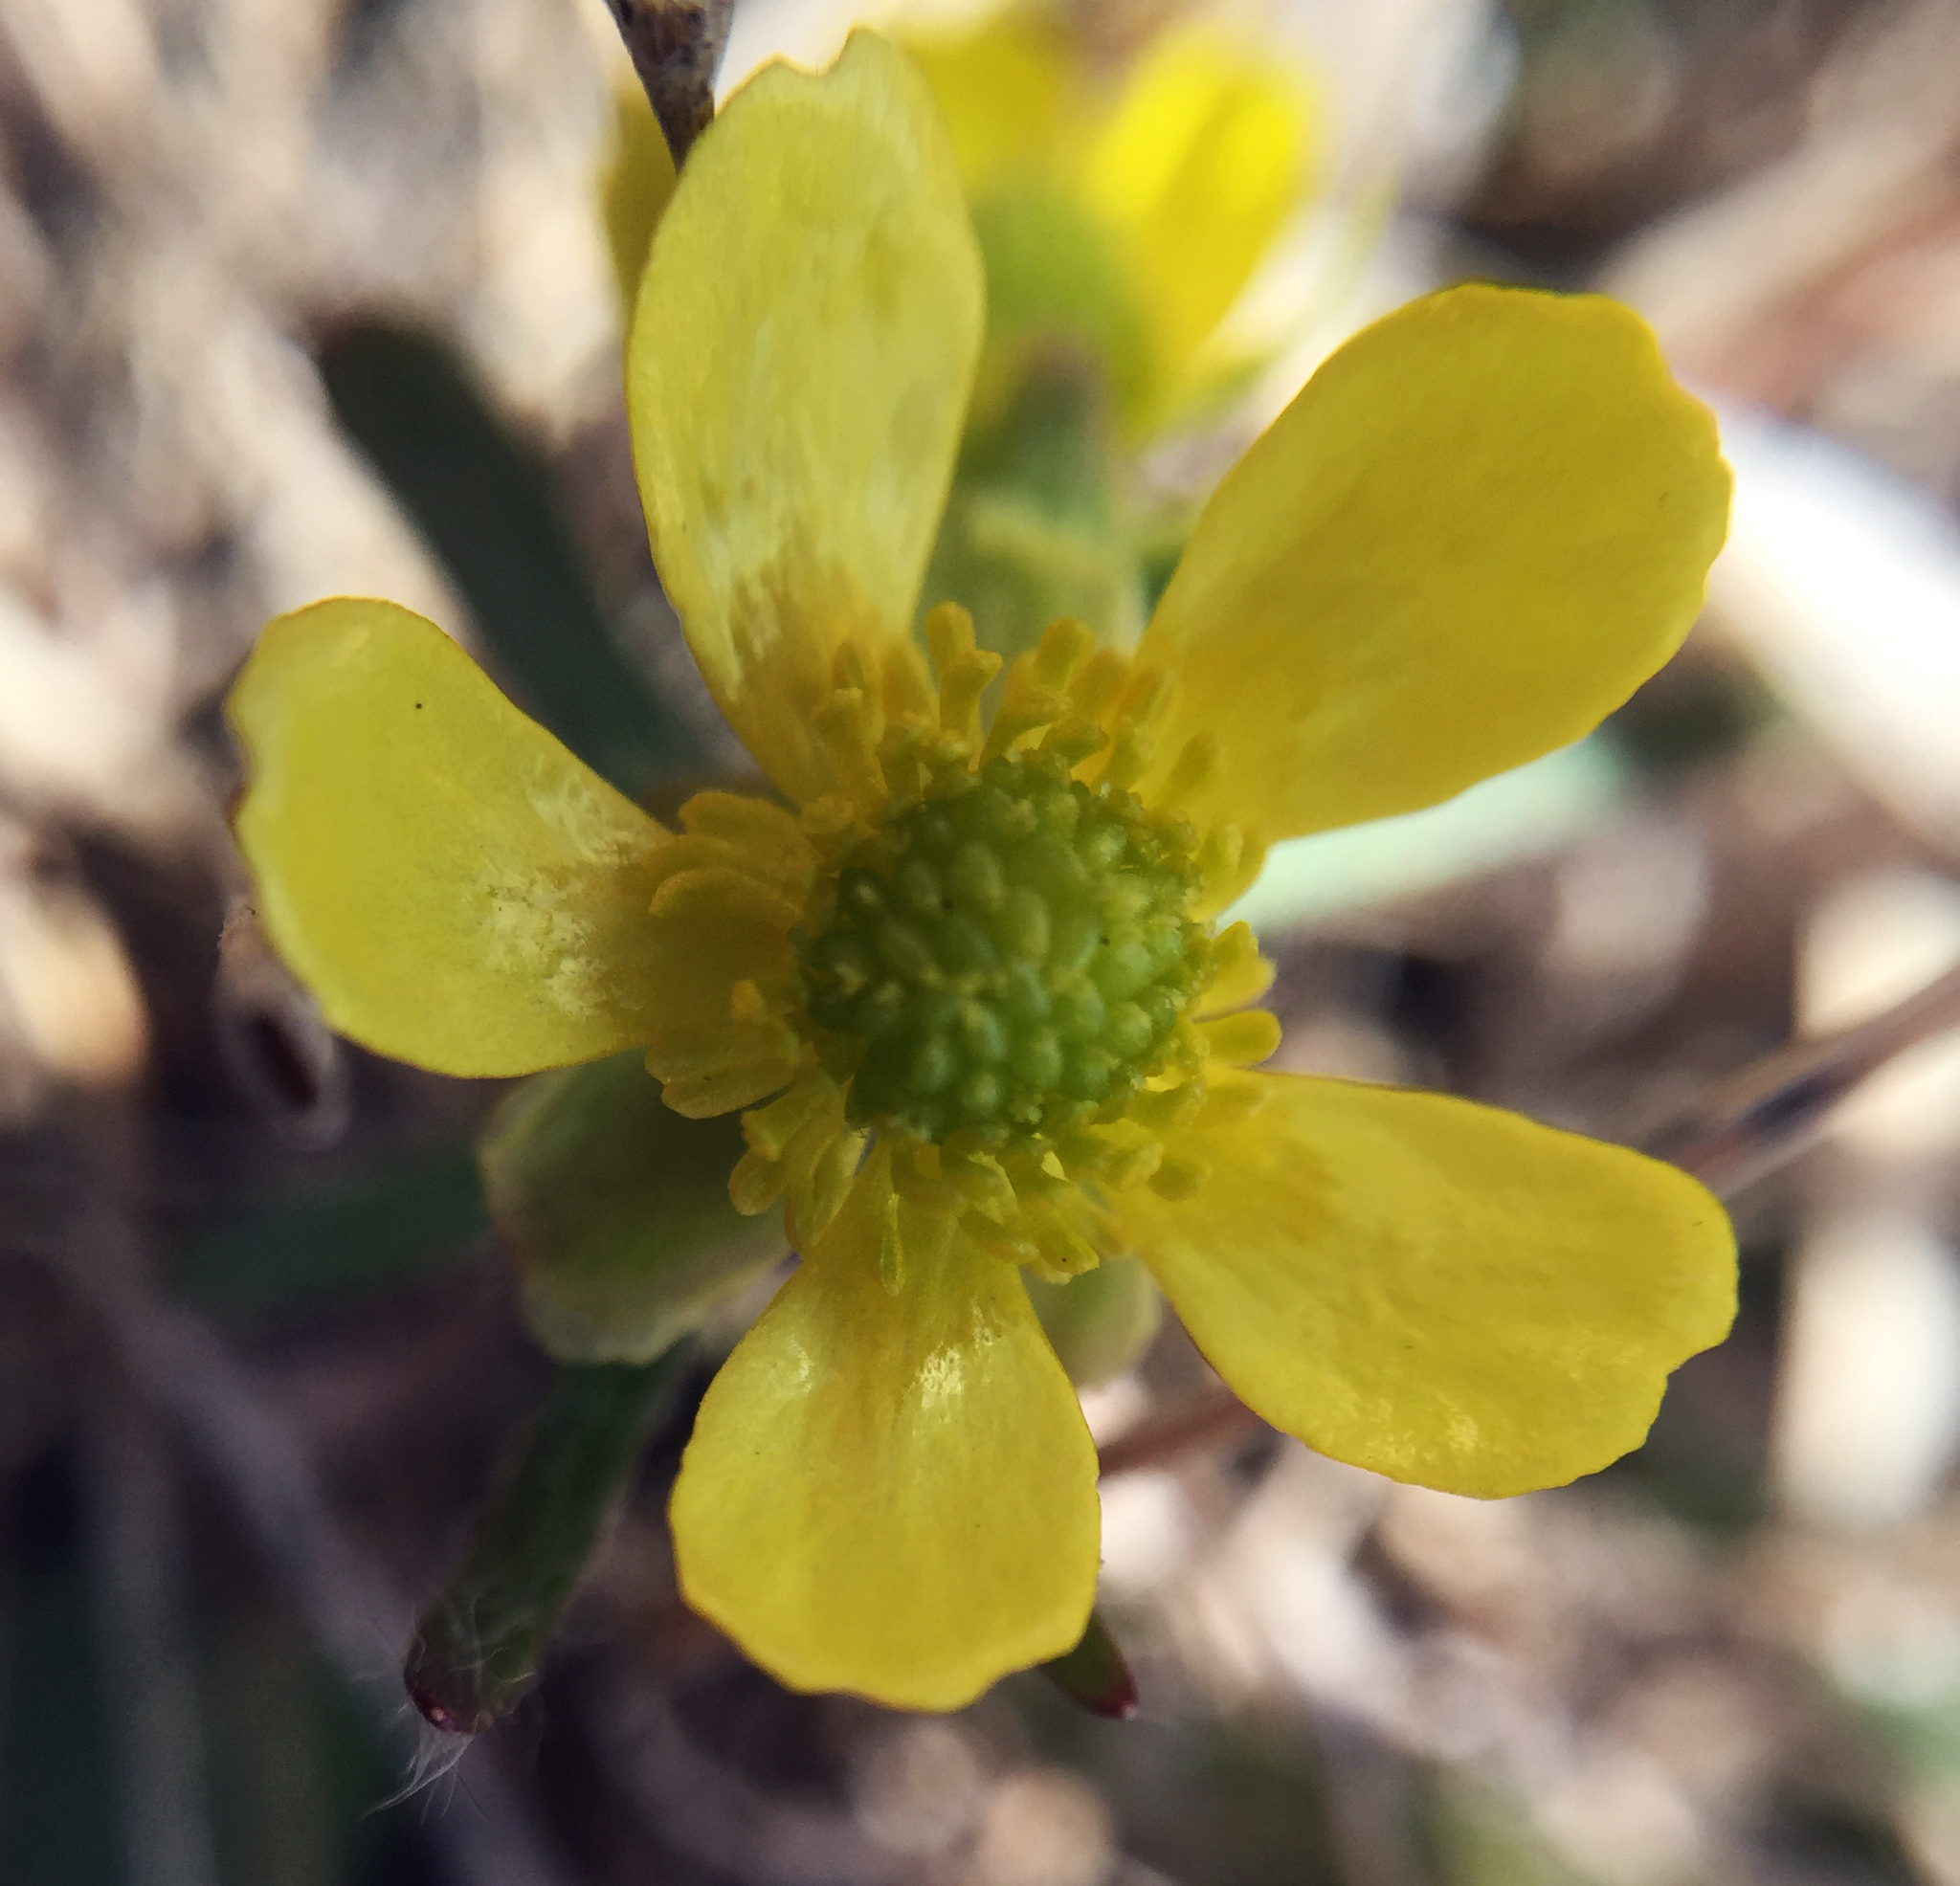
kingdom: Plantae
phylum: Tracheophyta
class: Magnoliopsida
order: Ranunculales
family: Ranunculaceae
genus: Ranunculus
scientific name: Ranunculus rhomboideus
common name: Prairie buttercup
